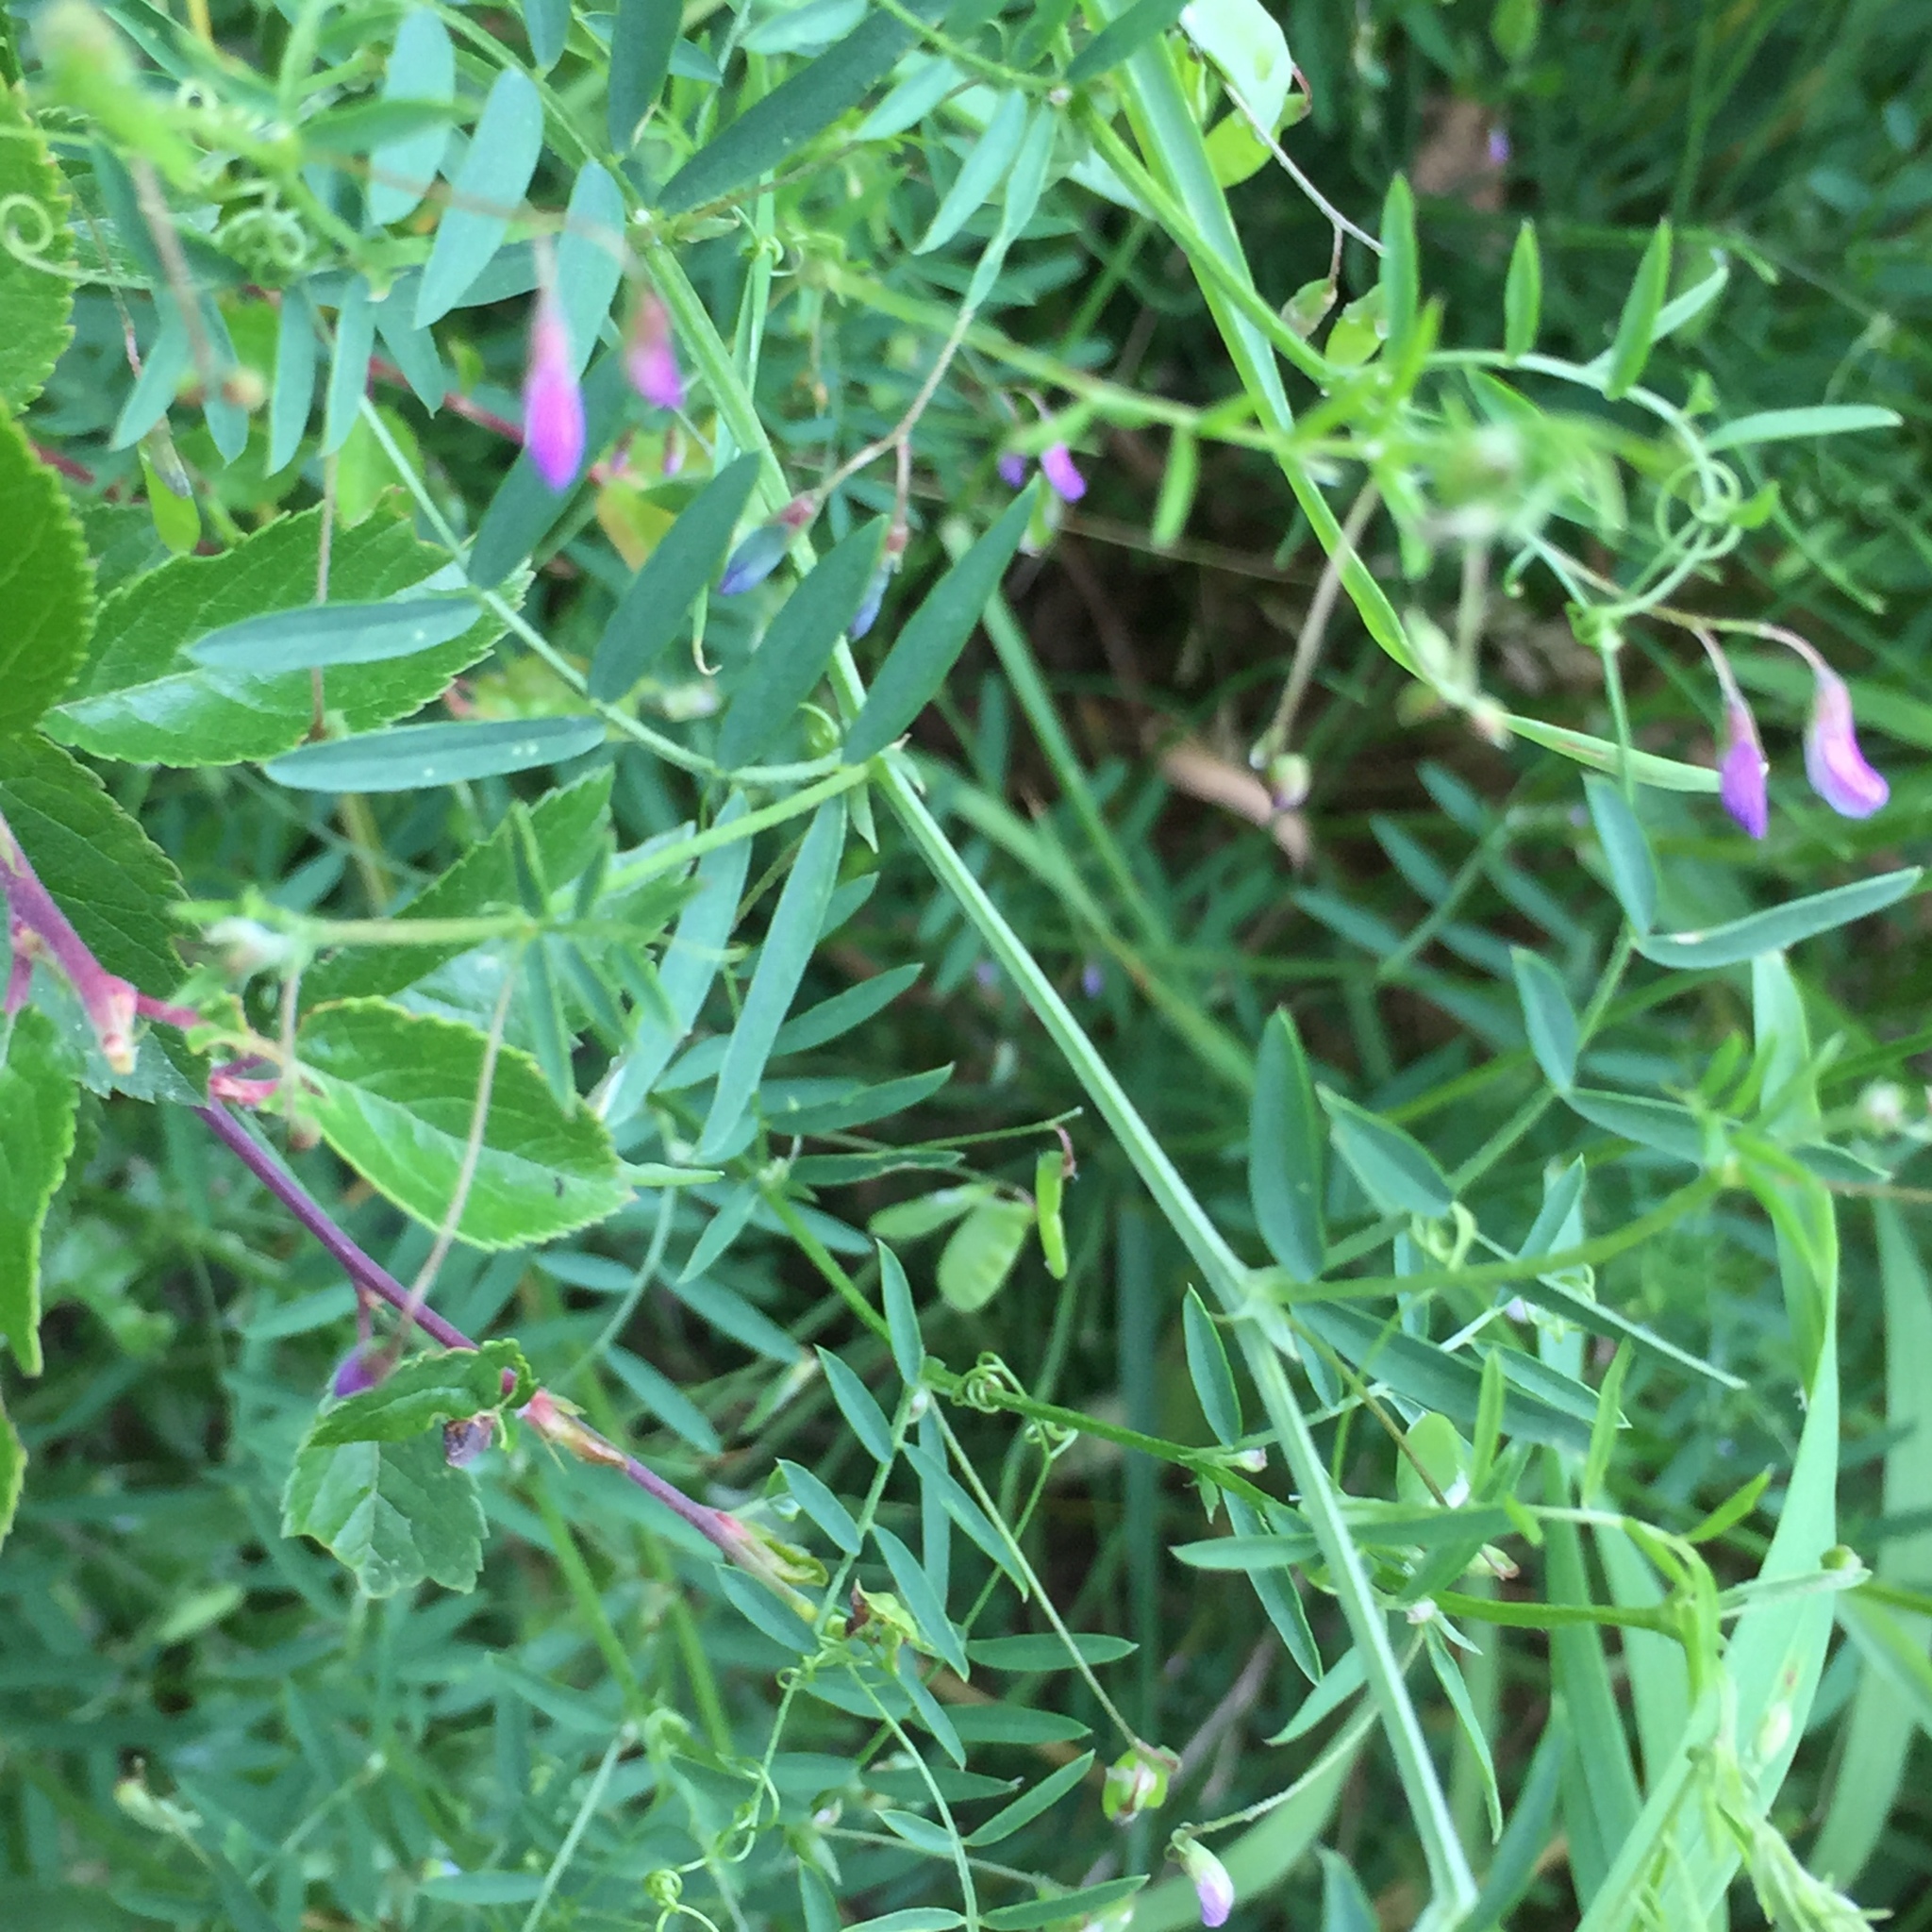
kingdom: Plantae
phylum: Tracheophyta
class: Magnoliopsida
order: Fabales
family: Fabaceae
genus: Vicia
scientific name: Vicia tetrasperma
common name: Smooth tare
